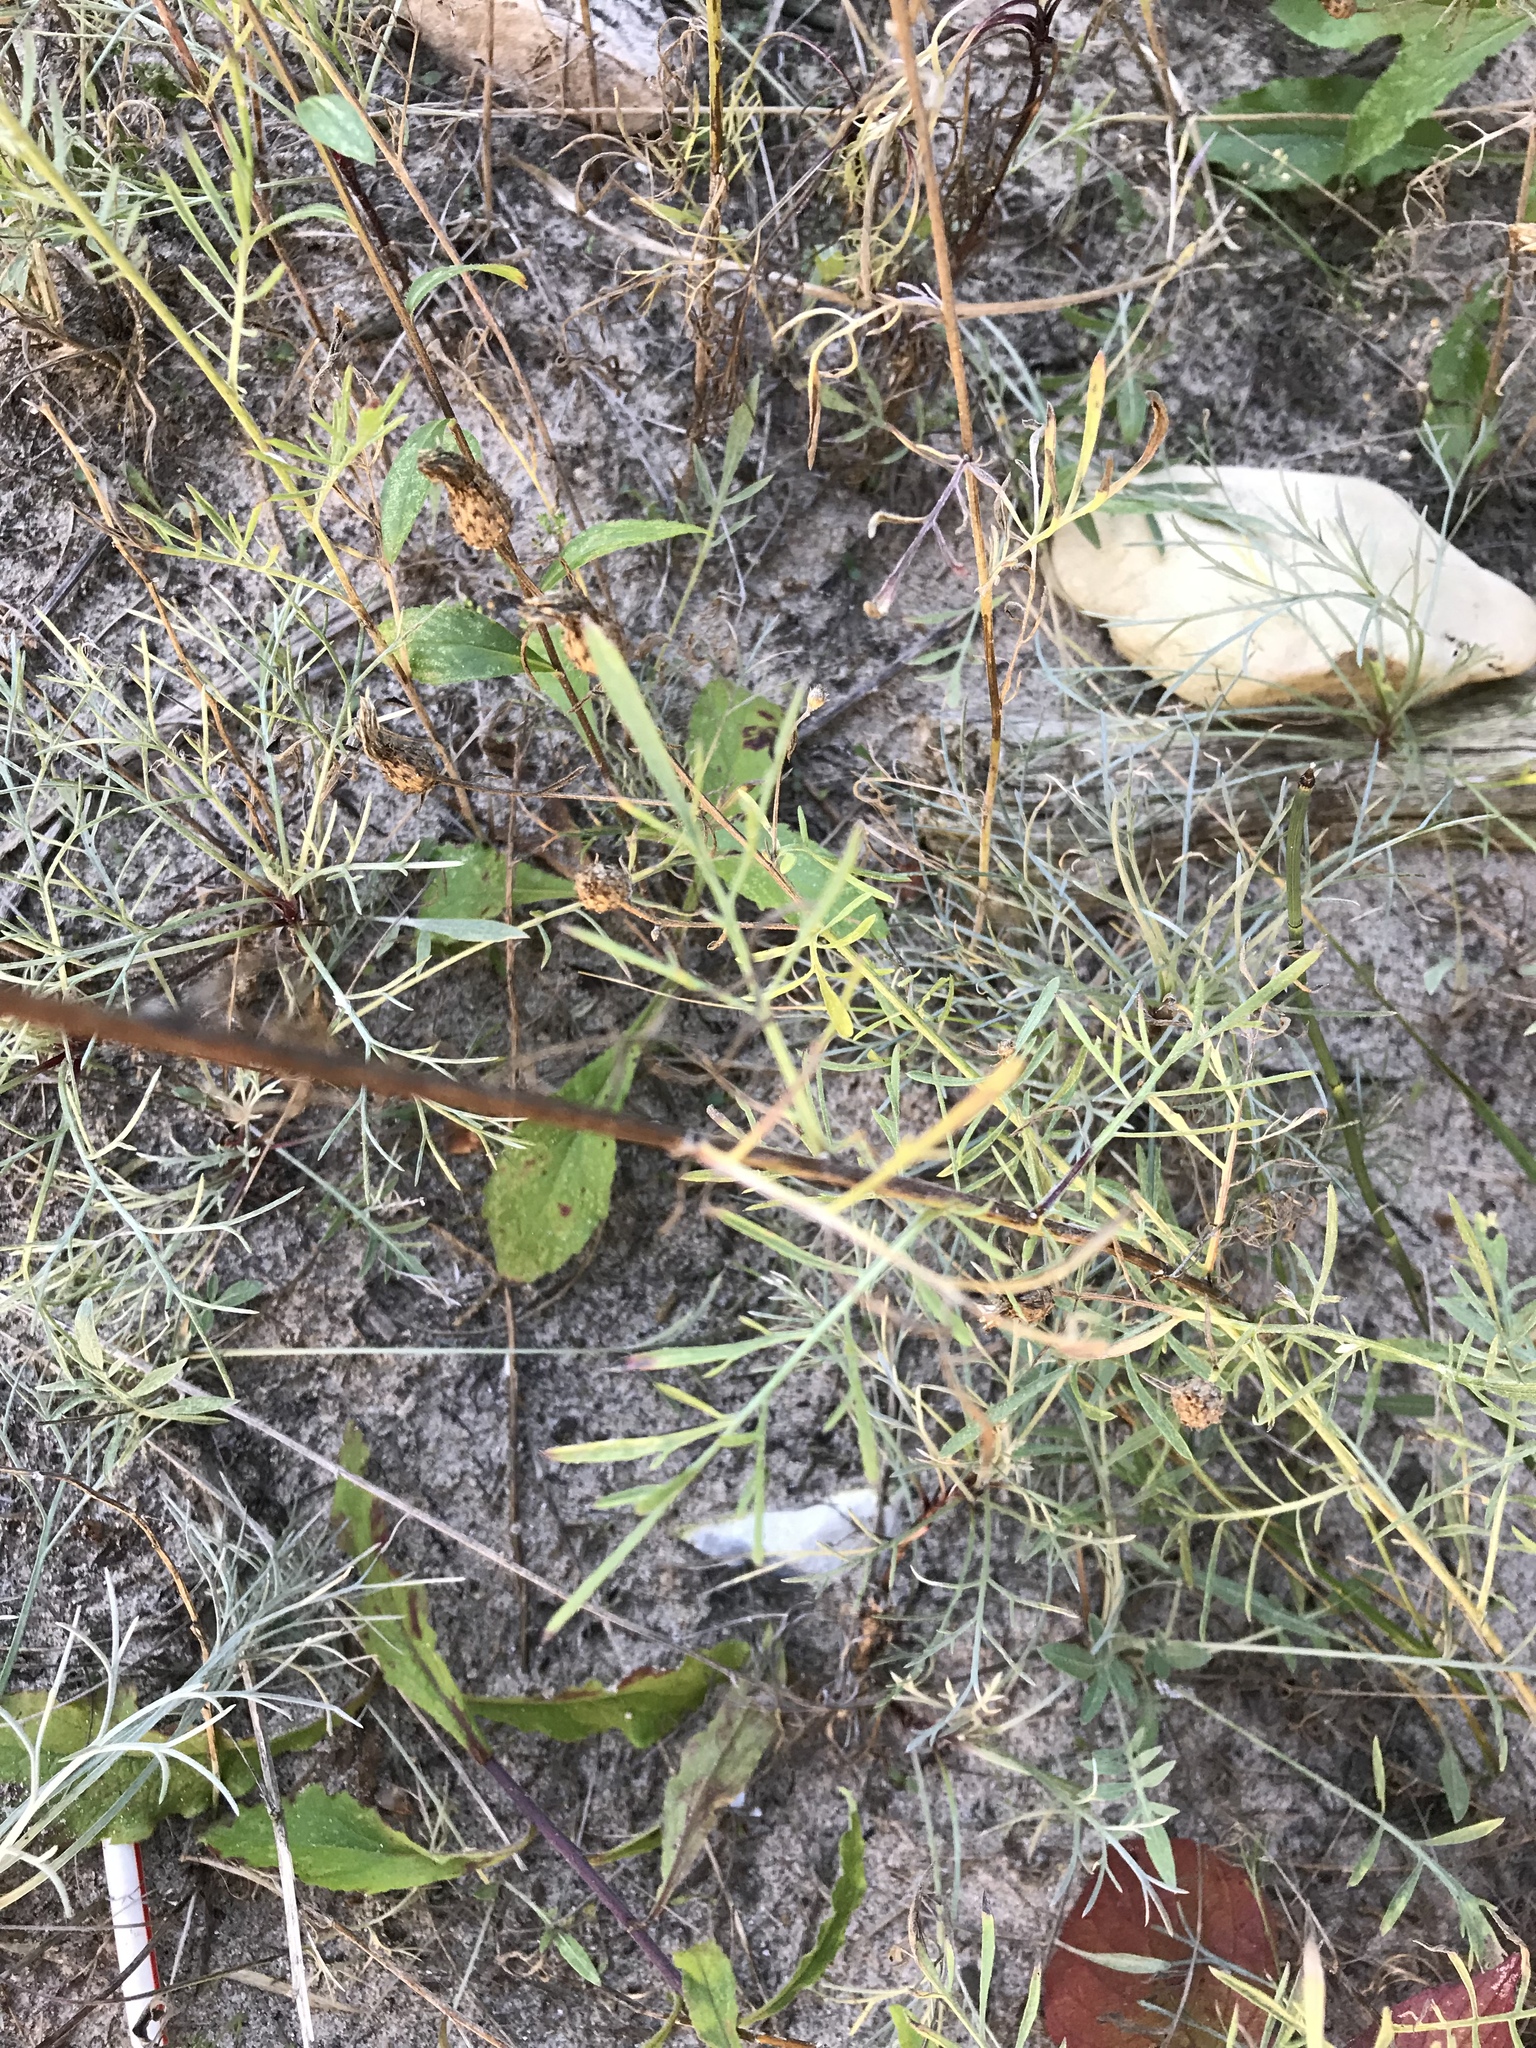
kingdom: Plantae
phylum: Tracheophyta
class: Magnoliopsida
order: Asterales
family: Asteraceae
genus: Centaurea
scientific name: Centaurea stoebe
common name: Spotted knapweed
